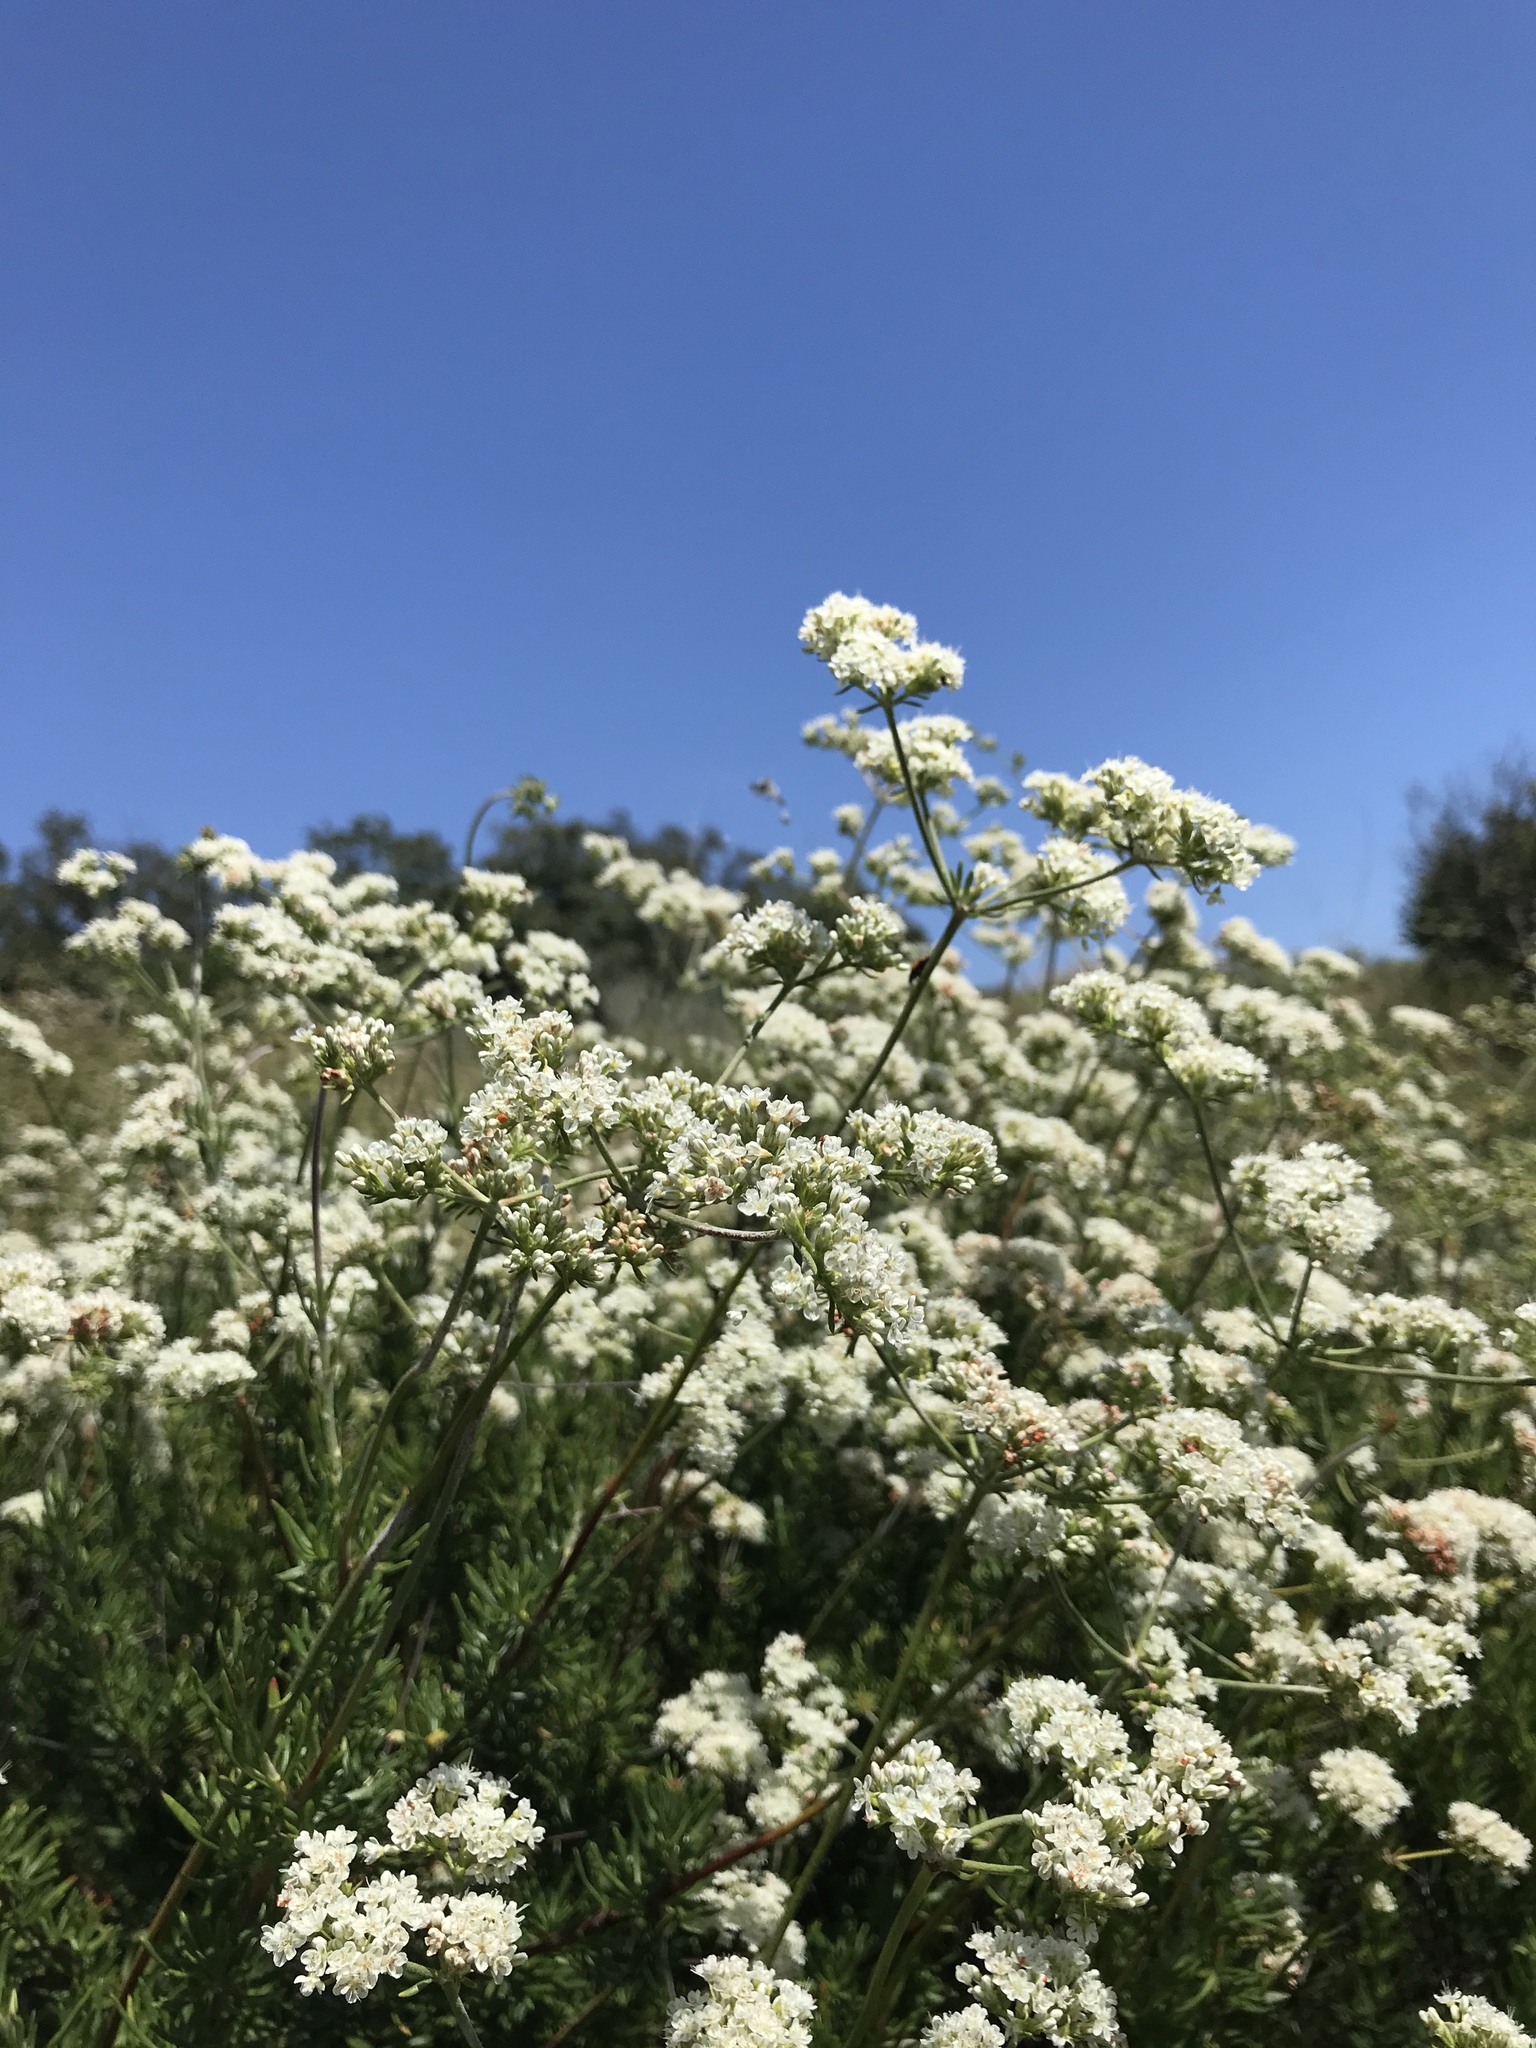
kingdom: Plantae
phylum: Tracheophyta
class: Magnoliopsida
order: Caryophyllales
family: Polygonaceae
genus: Eriogonum
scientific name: Eriogonum fasciculatum
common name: California wild buckwheat
